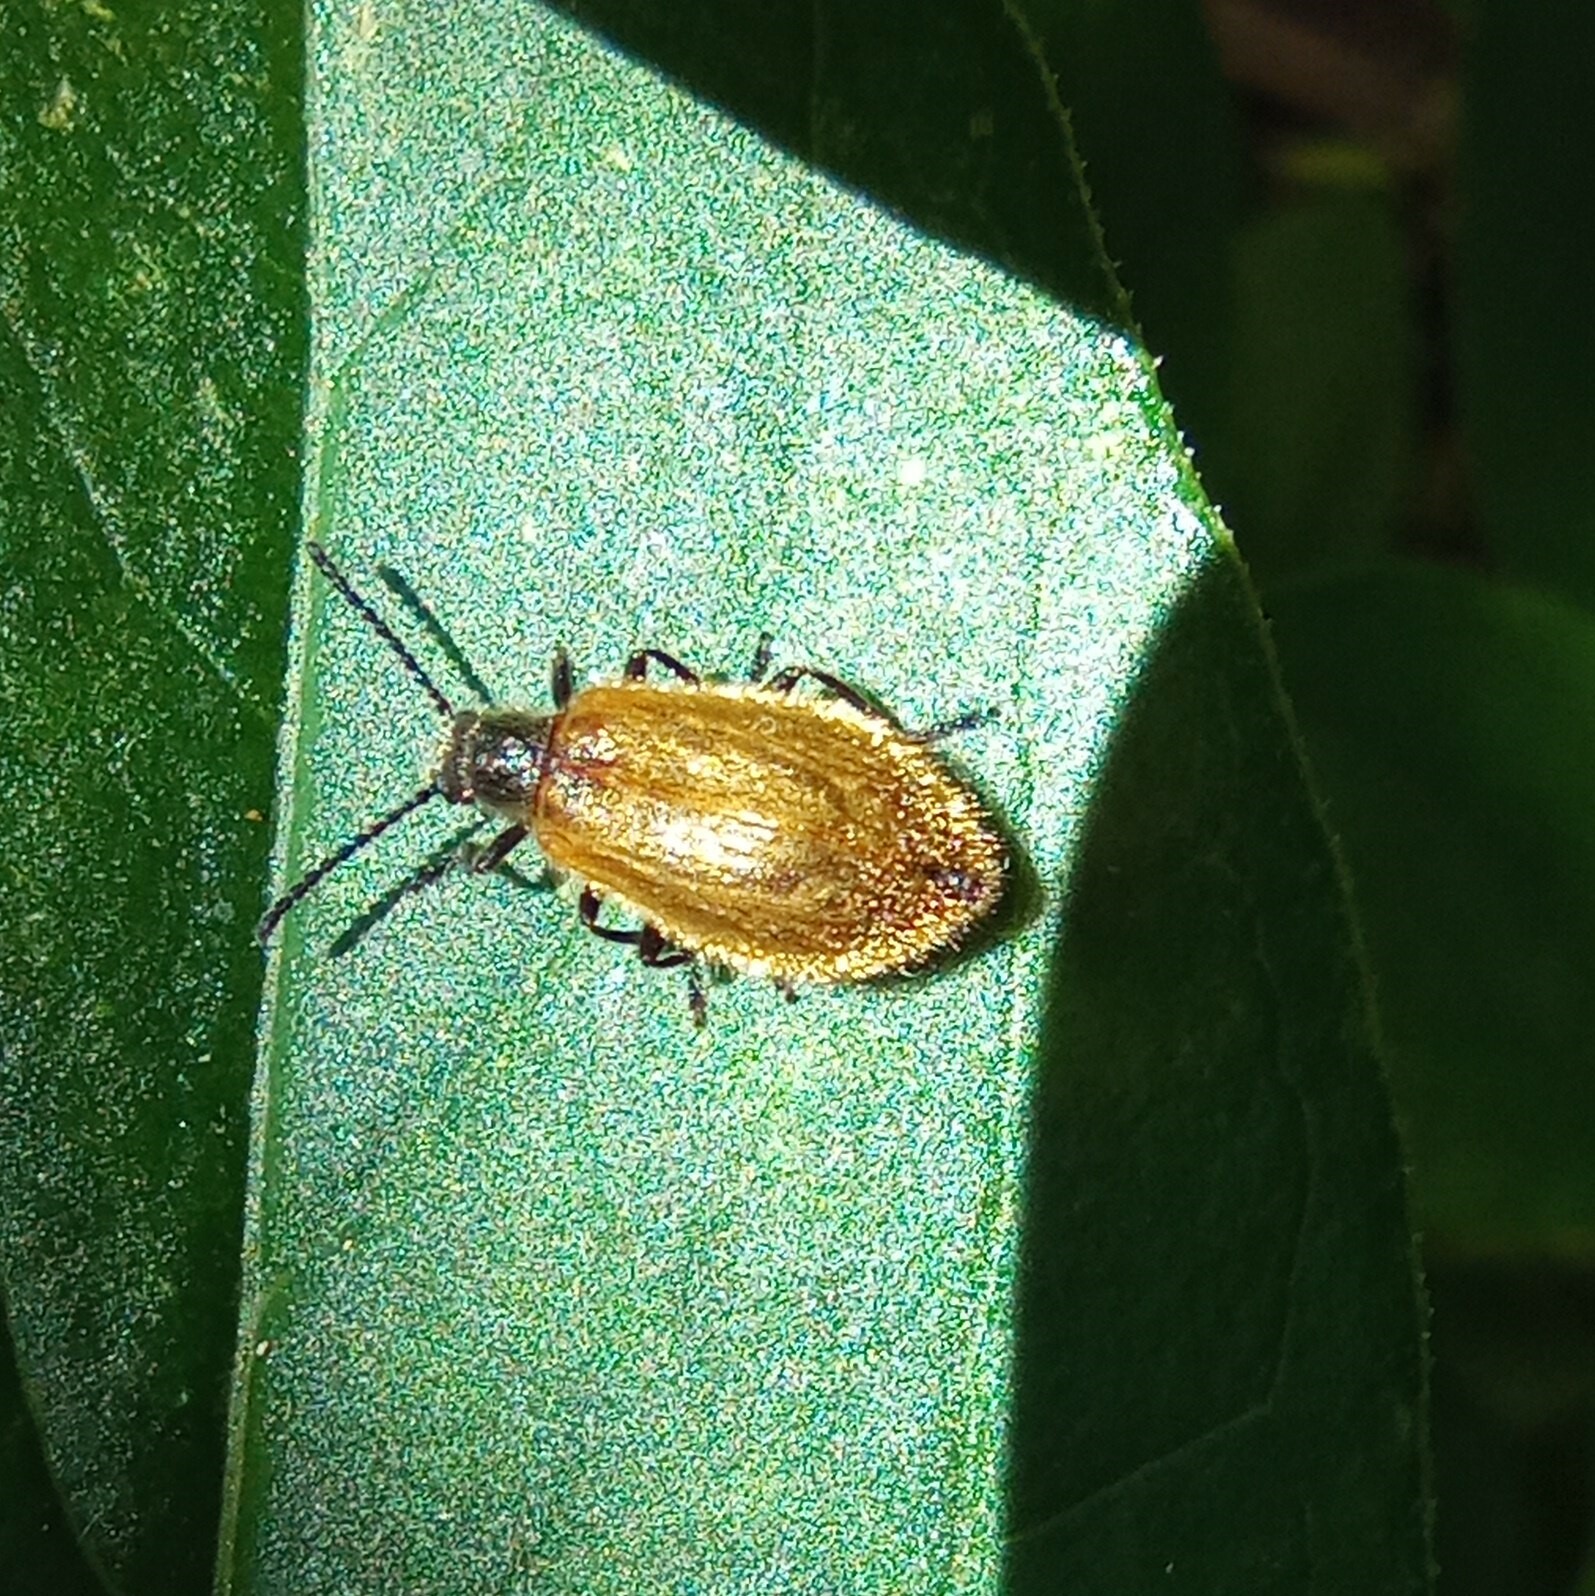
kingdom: Animalia
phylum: Arthropoda
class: Insecta
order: Coleoptera
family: Tenebrionidae
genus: Lagria
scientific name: Lagria hirta
